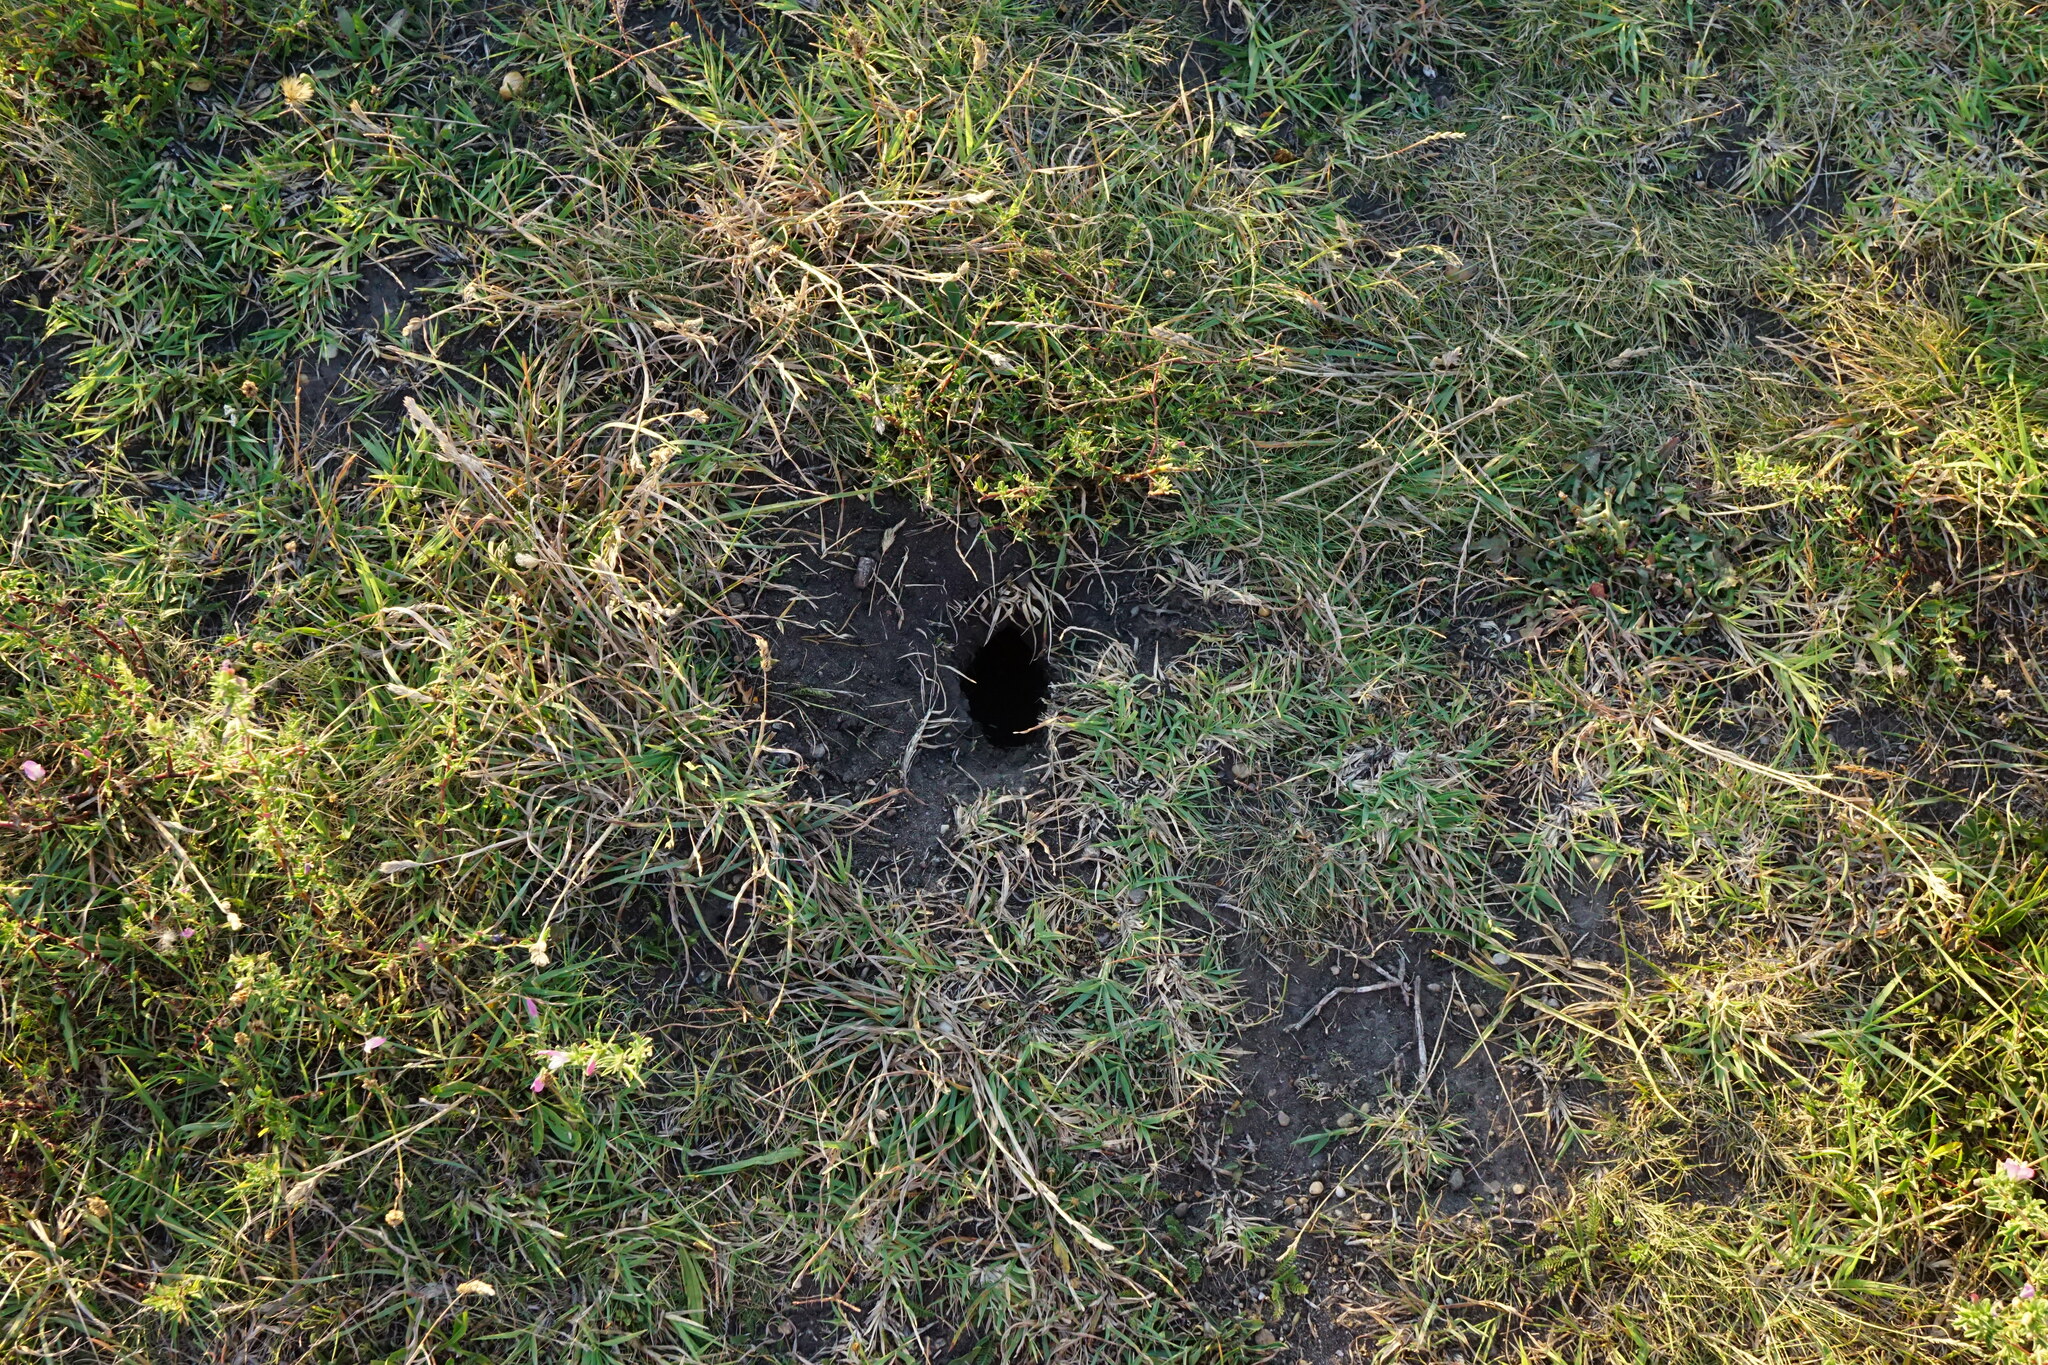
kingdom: Animalia
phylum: Chordata
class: Mammalia
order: Rodentia
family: Sciuridae
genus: Spermophilus
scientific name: Spermophilus citellus
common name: European ground squirrel
